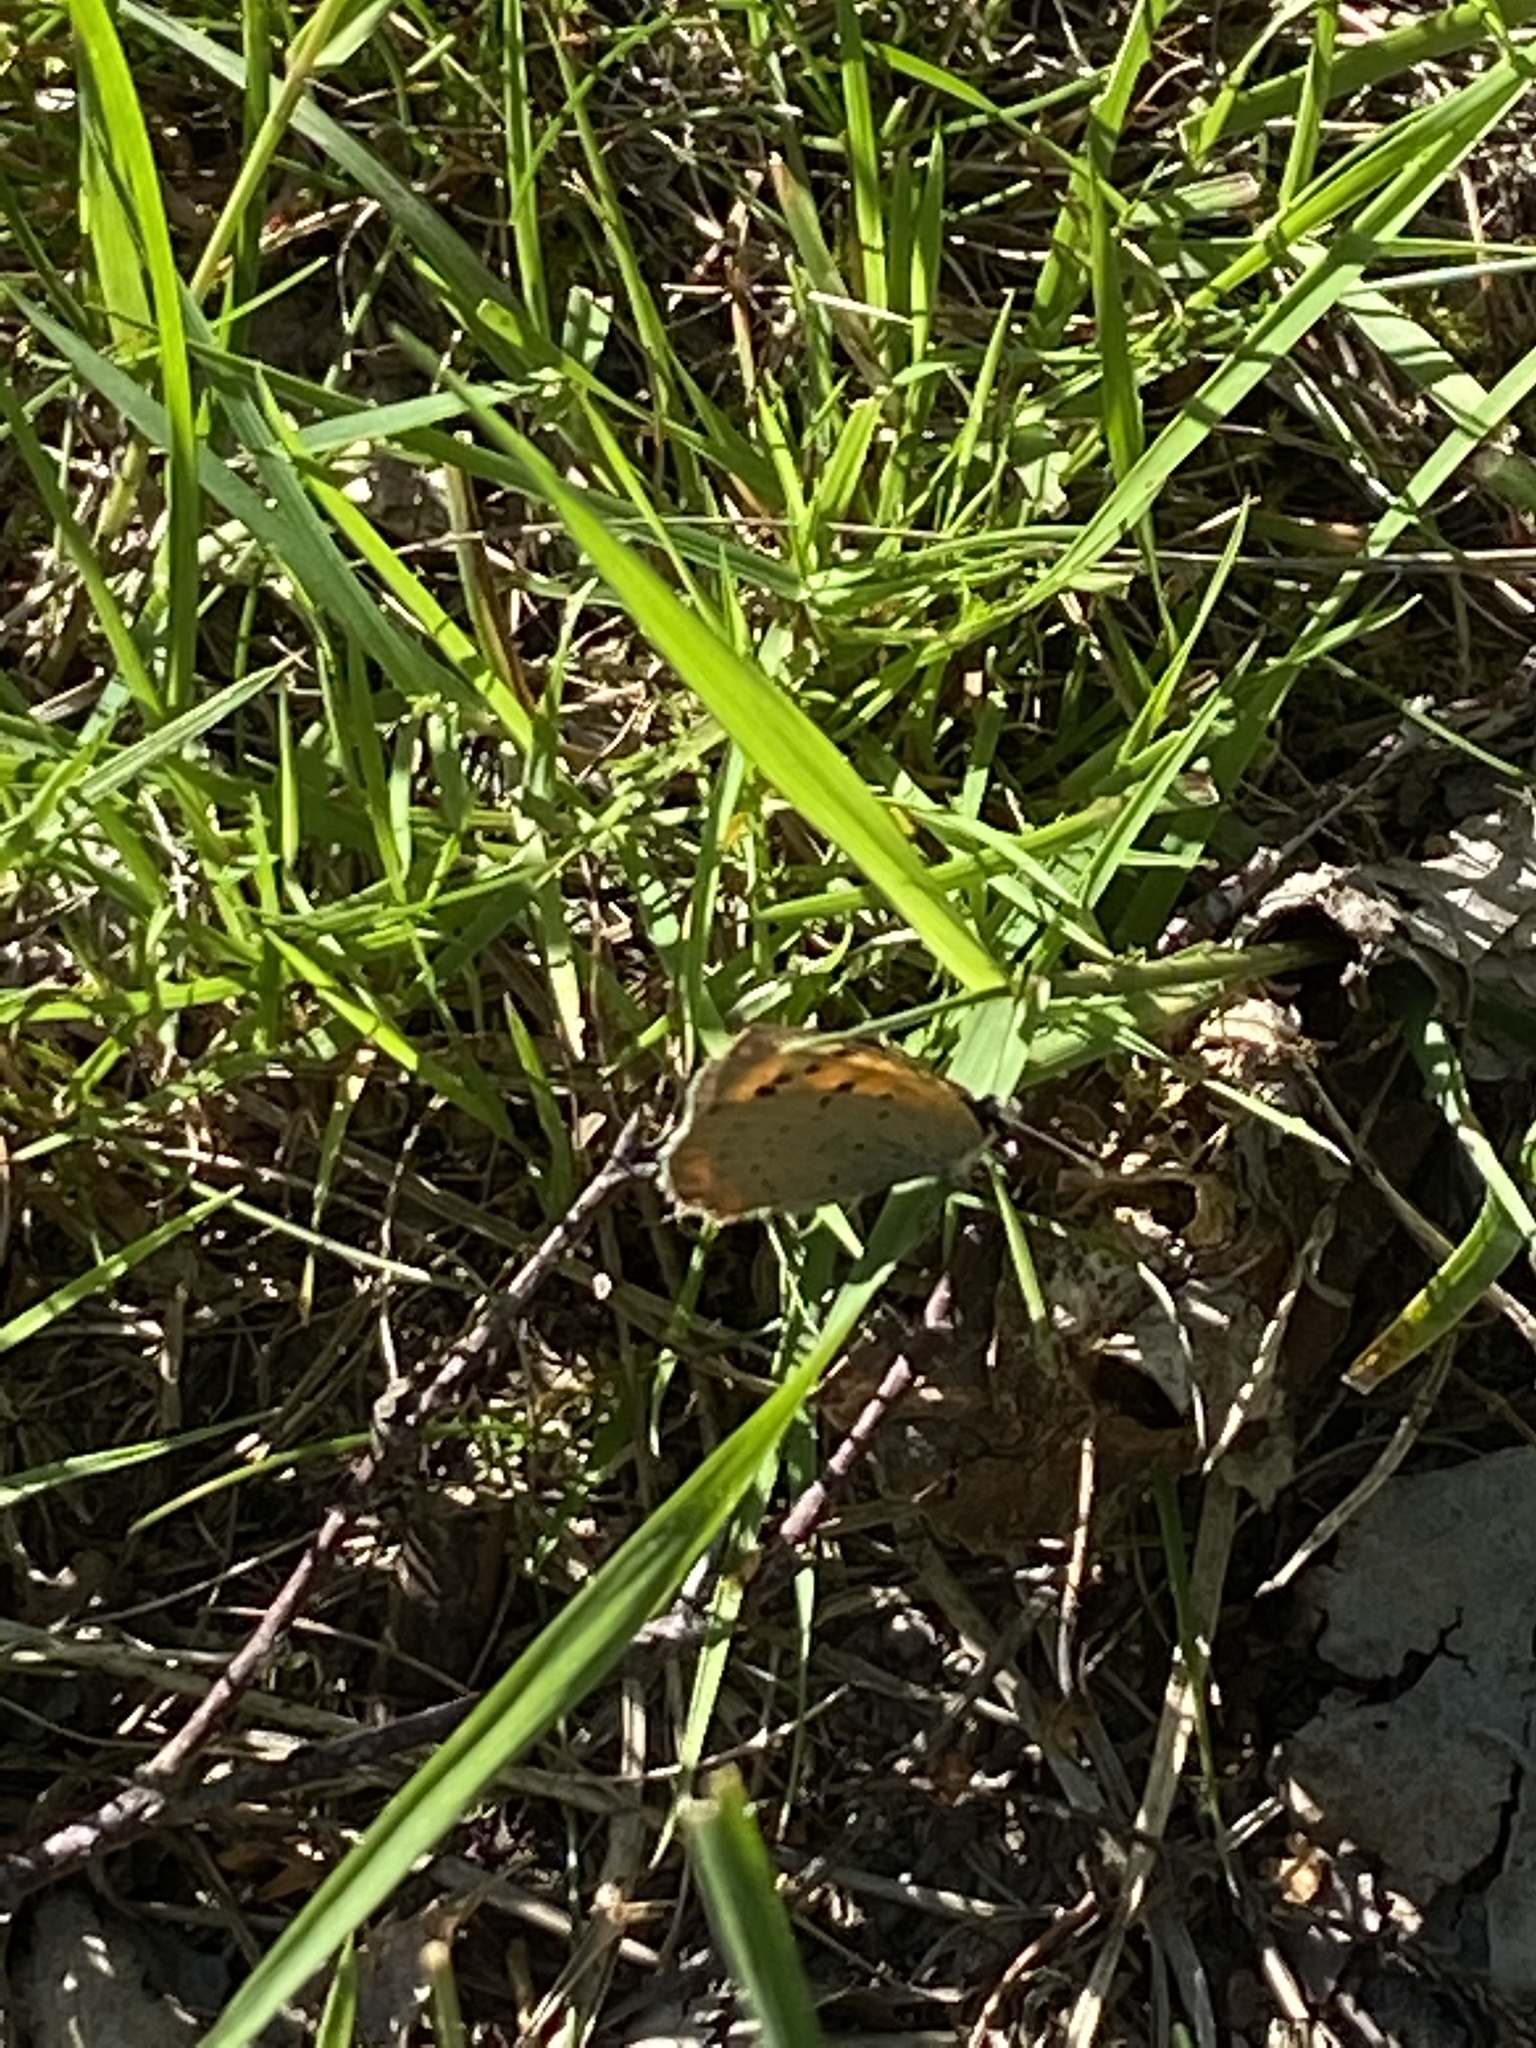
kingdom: Animalia
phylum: Arthropoda
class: Insecta
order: Lepidoptera
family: Lycaenidae
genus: Lycaena
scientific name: Lycaena phlaeas
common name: Small copper
